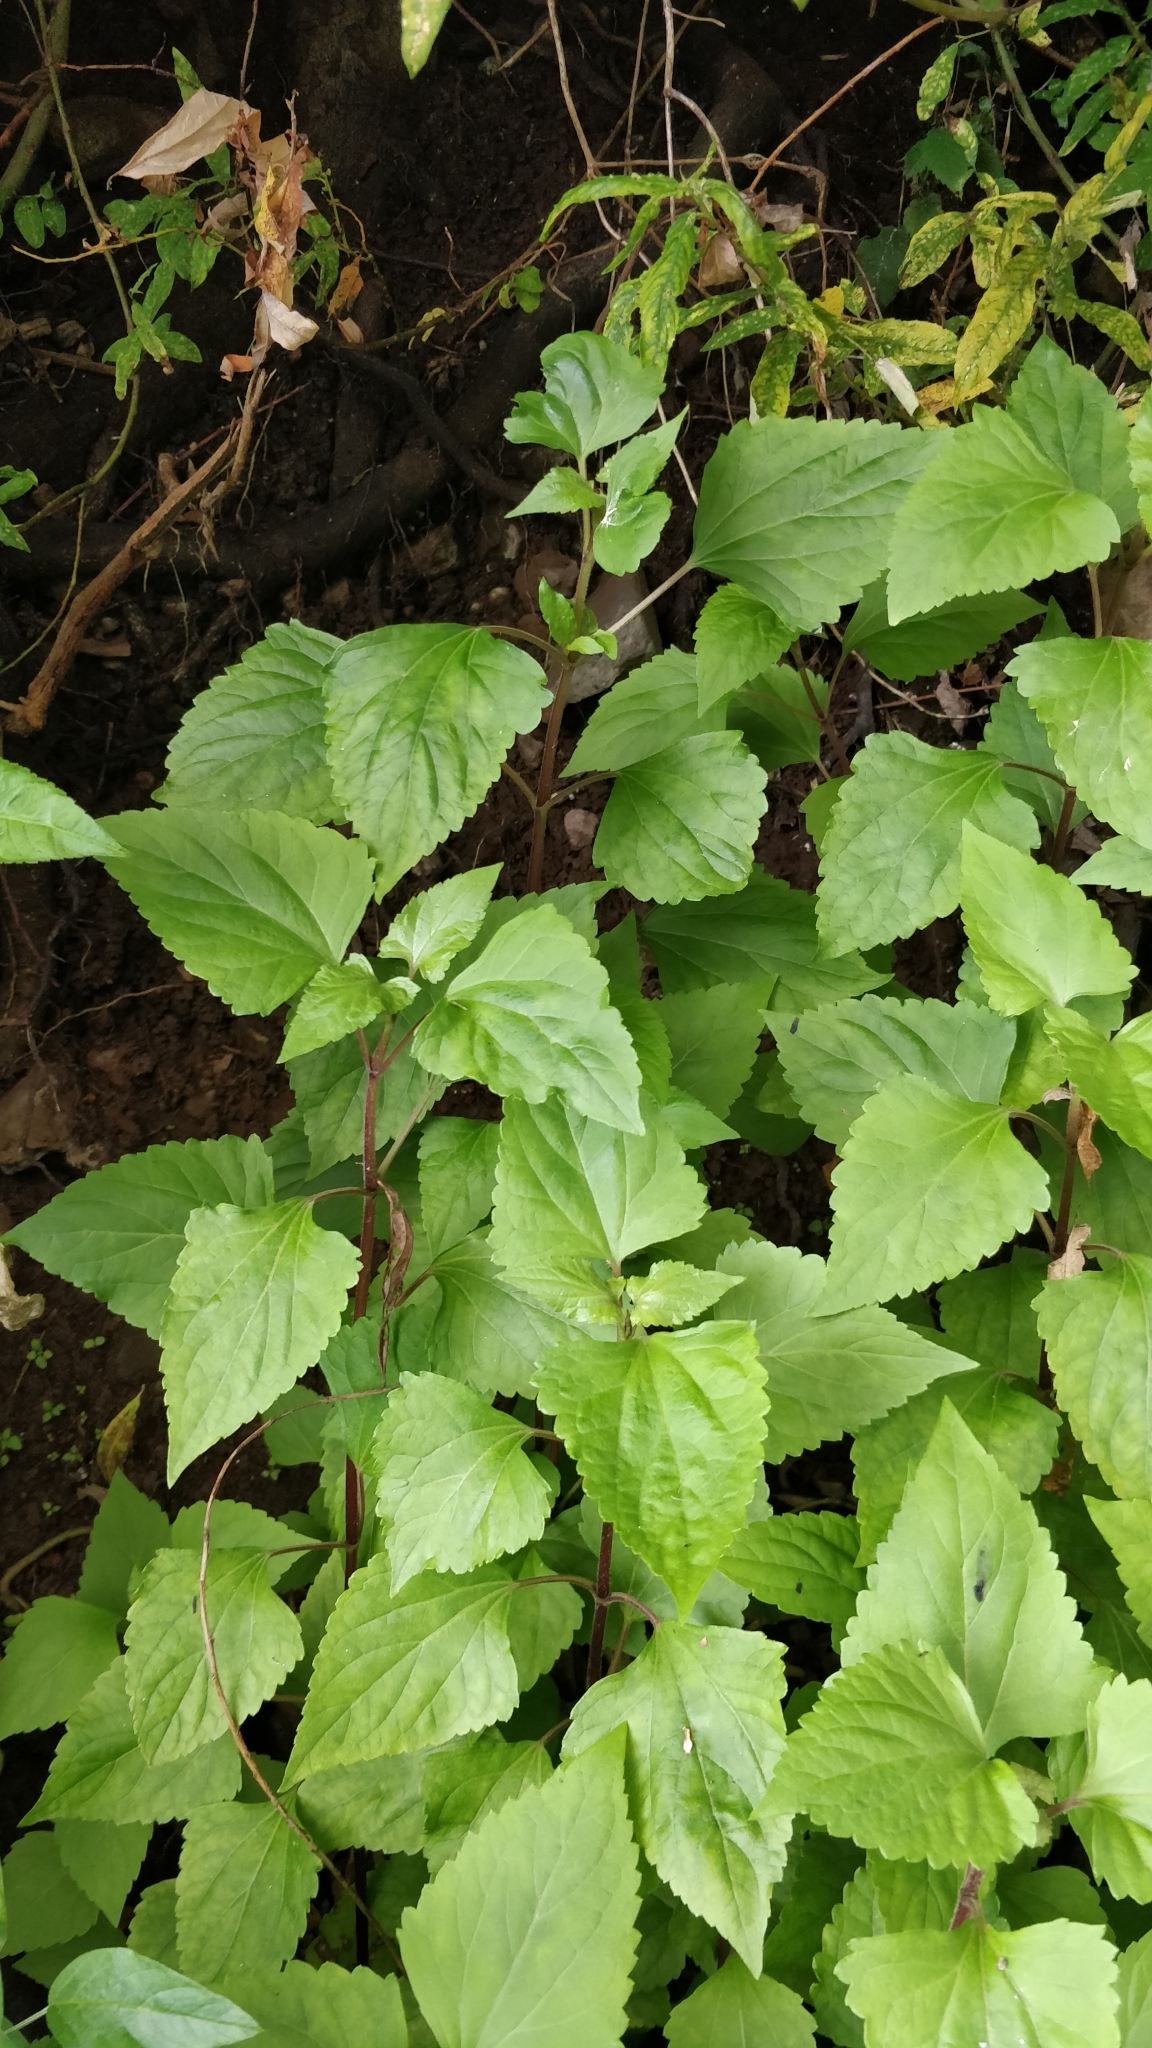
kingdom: Plantae
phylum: Tracheophyta
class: Magnoliopsida
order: Asterales
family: Asteraceae
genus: Ageratina
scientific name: Ageratina adenophora
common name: Sticky snakeroot
